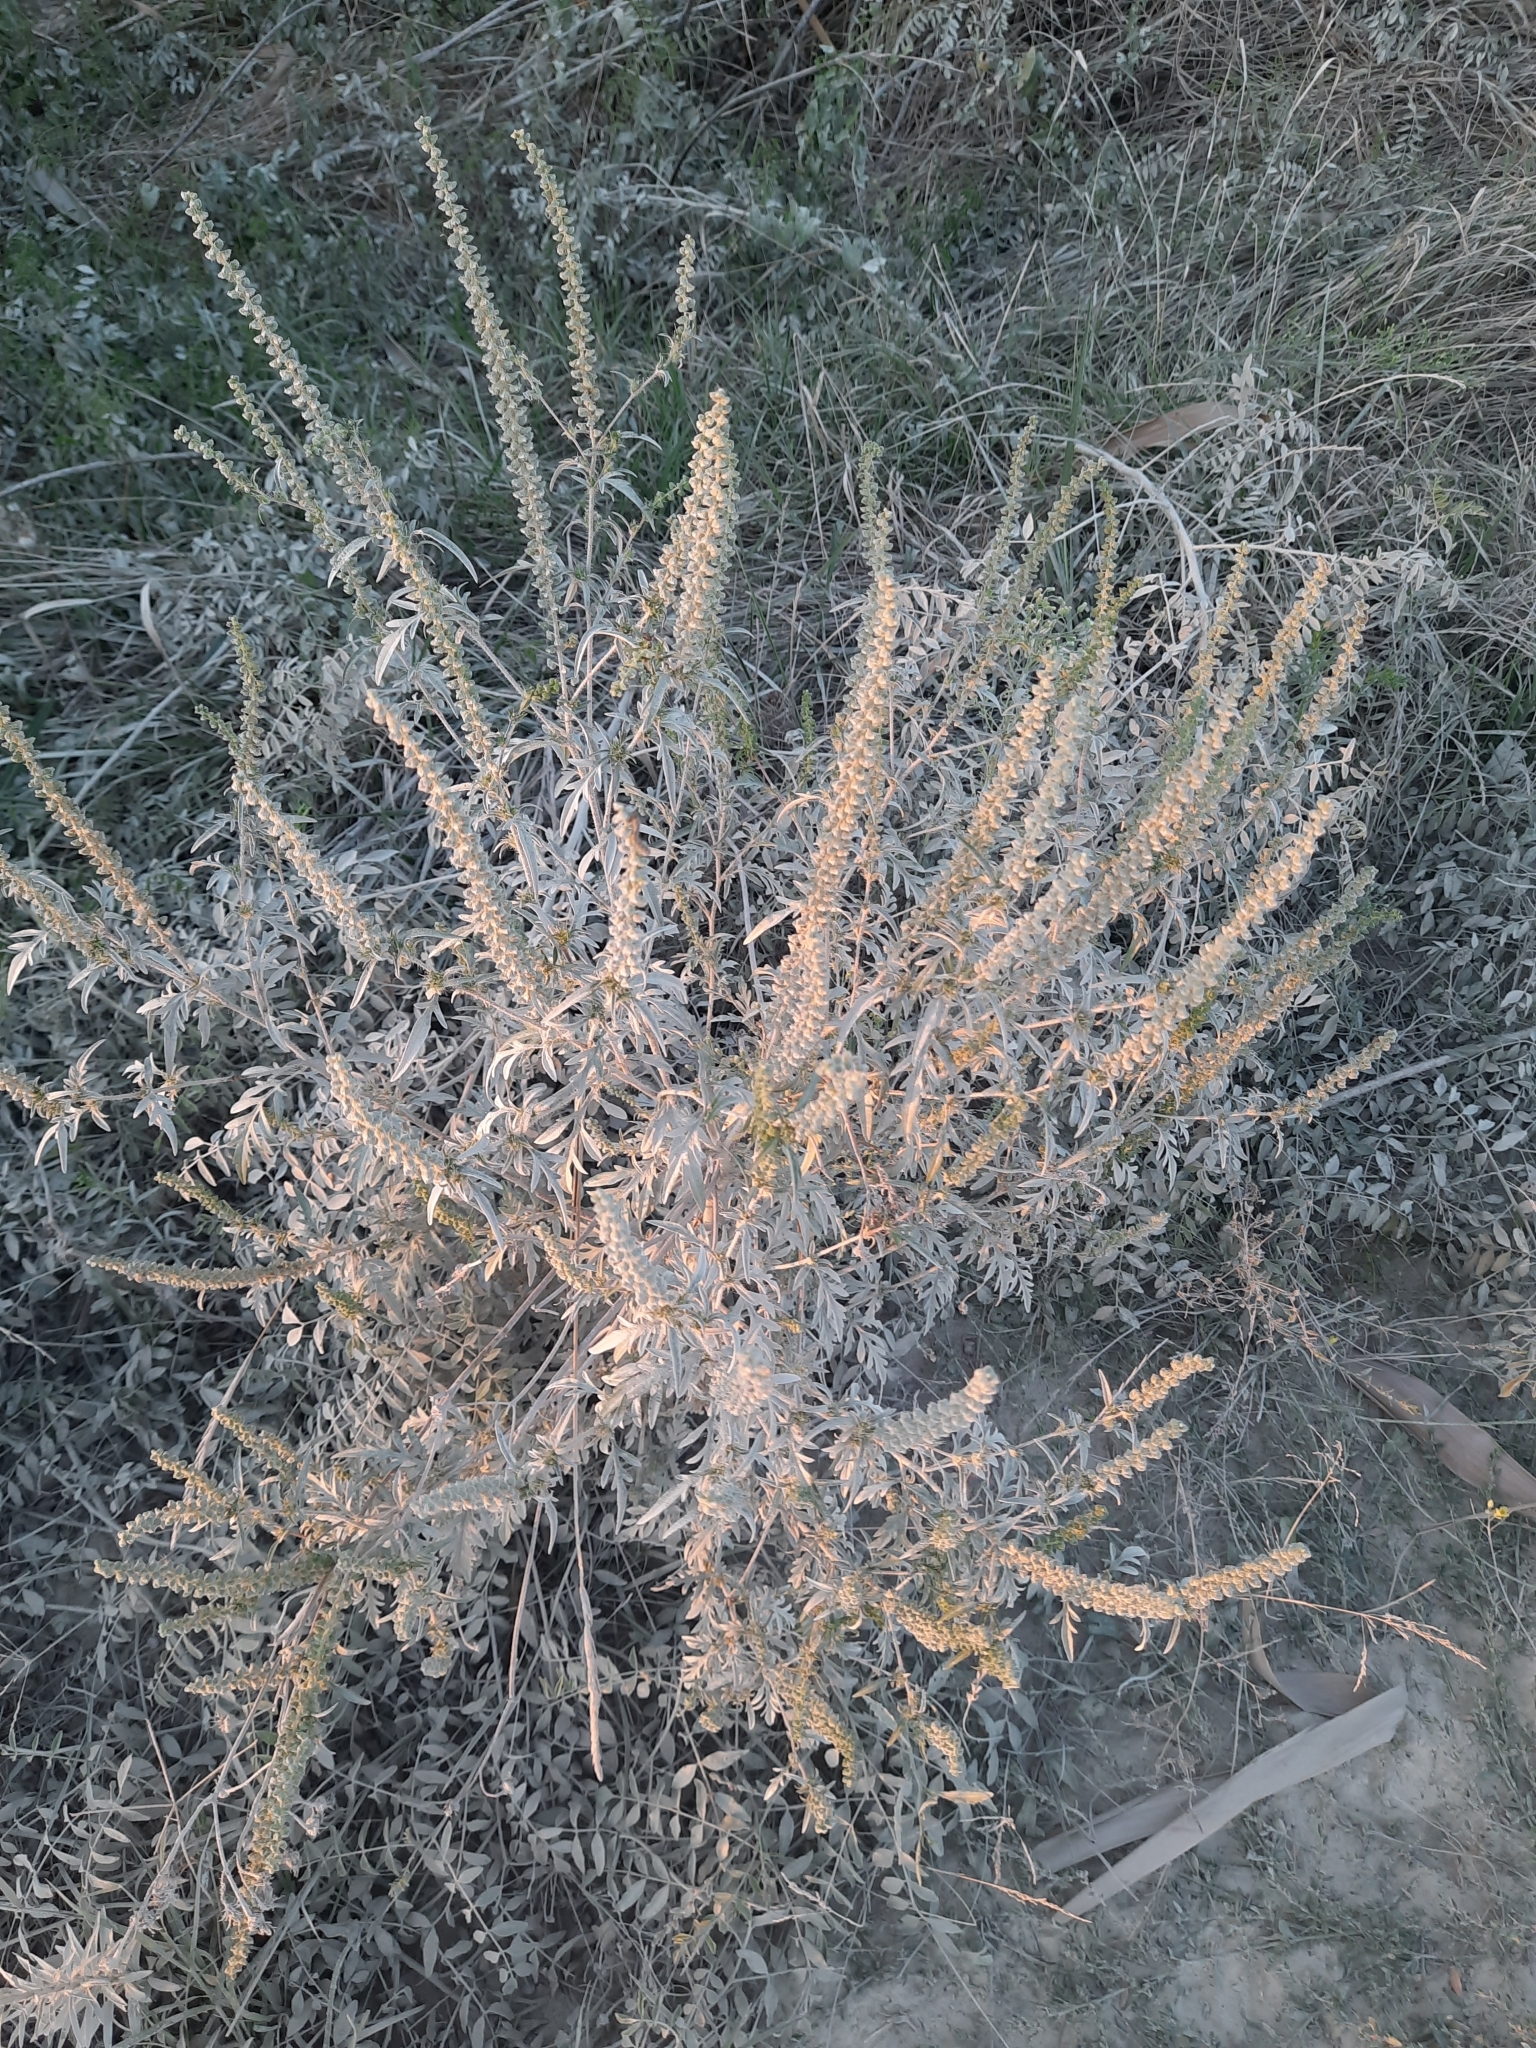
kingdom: Plantae
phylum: Tracheophyta
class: Magnoliopsida
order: Asterales
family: Asteraceae
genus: Ambrosia
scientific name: Ambrosia artemisiifolia
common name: Annual ragweed
